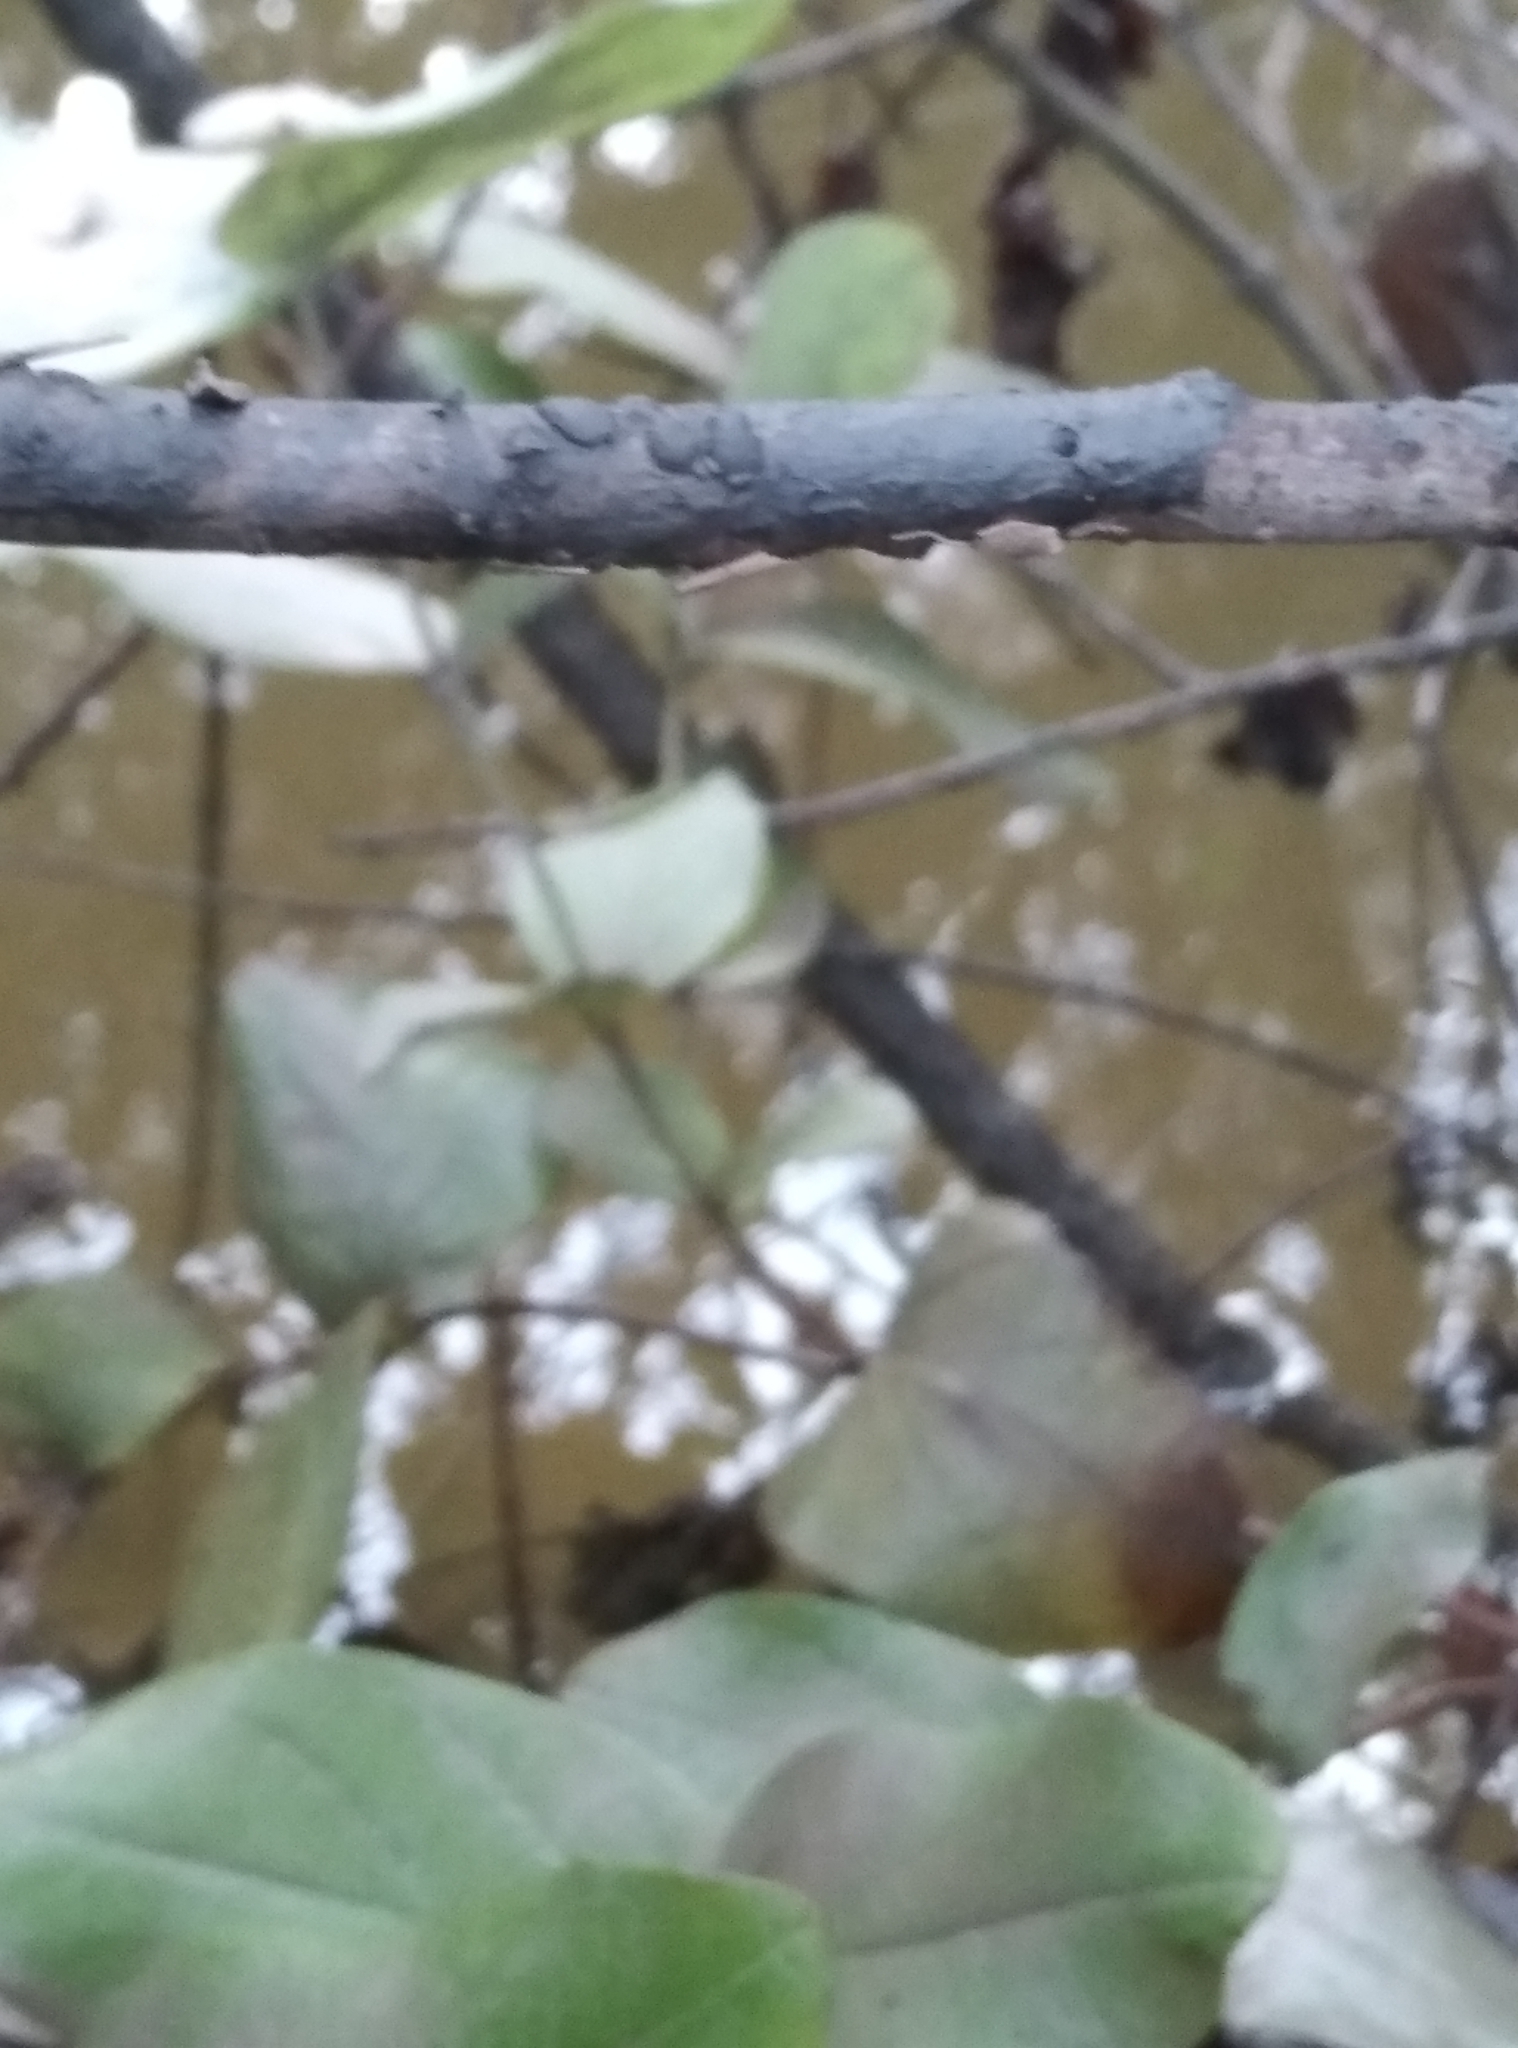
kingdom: Plantae
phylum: Tracheophyta
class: Magnoliopsida
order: Malpighiales
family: Hypericaceae
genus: Hypericum
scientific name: Hypericum androsaemum
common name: Sweet-amber
